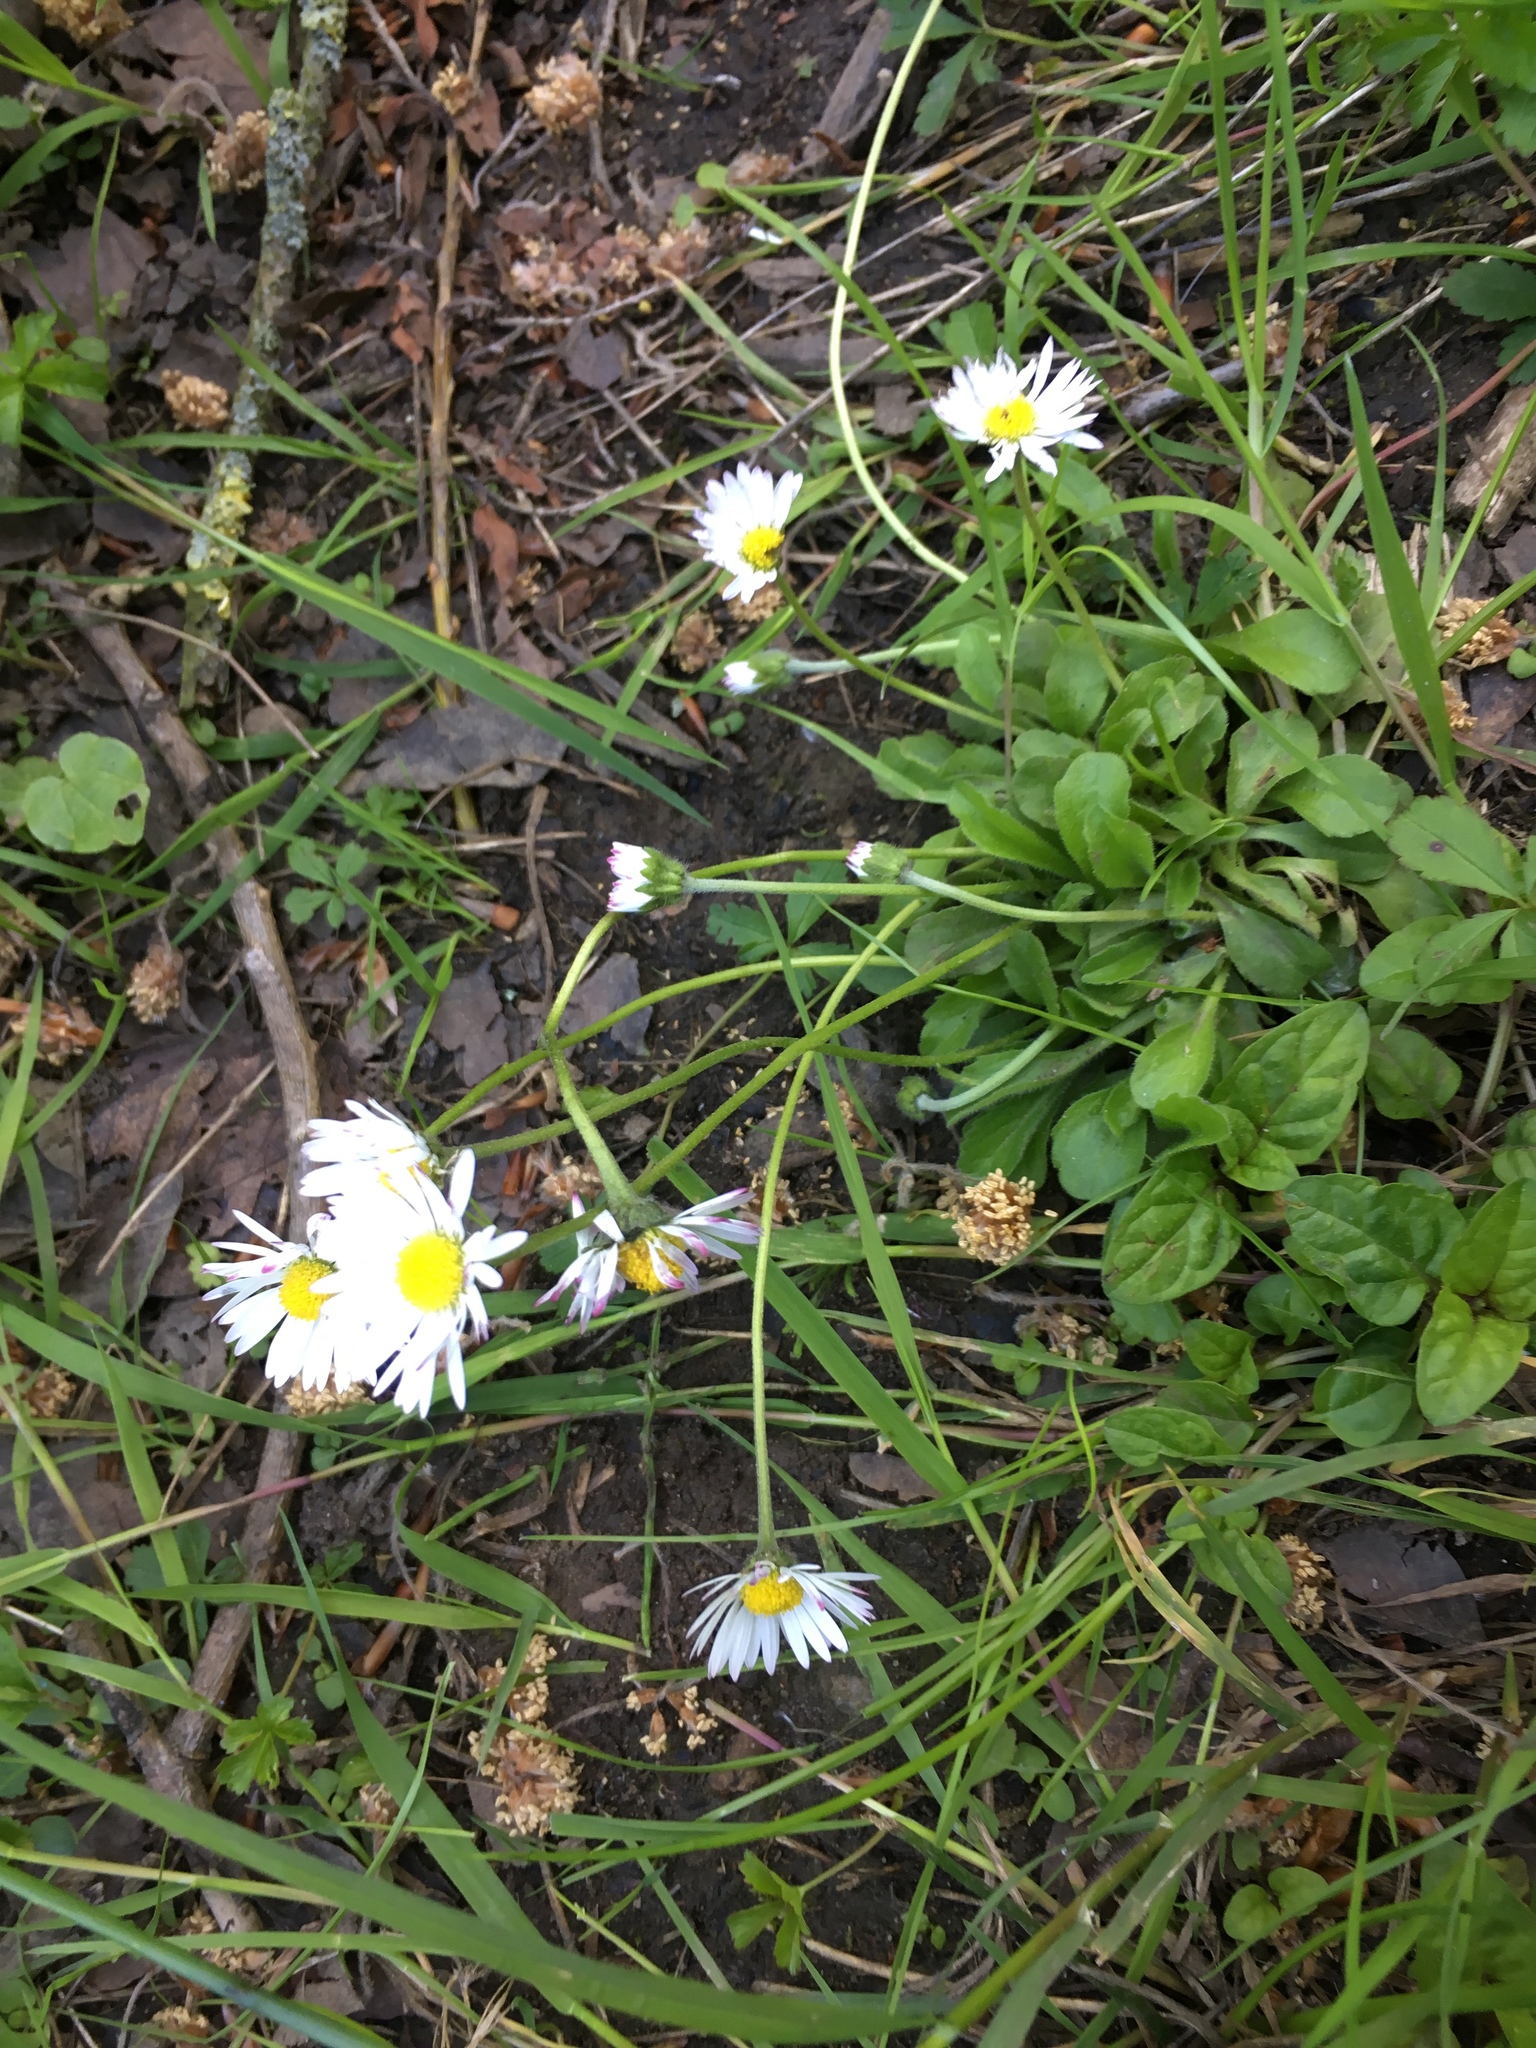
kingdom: Plantae
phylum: Tracheophyta
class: Magnoliopsida
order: Asterales
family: Asteraceae
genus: Bellis
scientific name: Bellis perennis
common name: Lawndaisy
